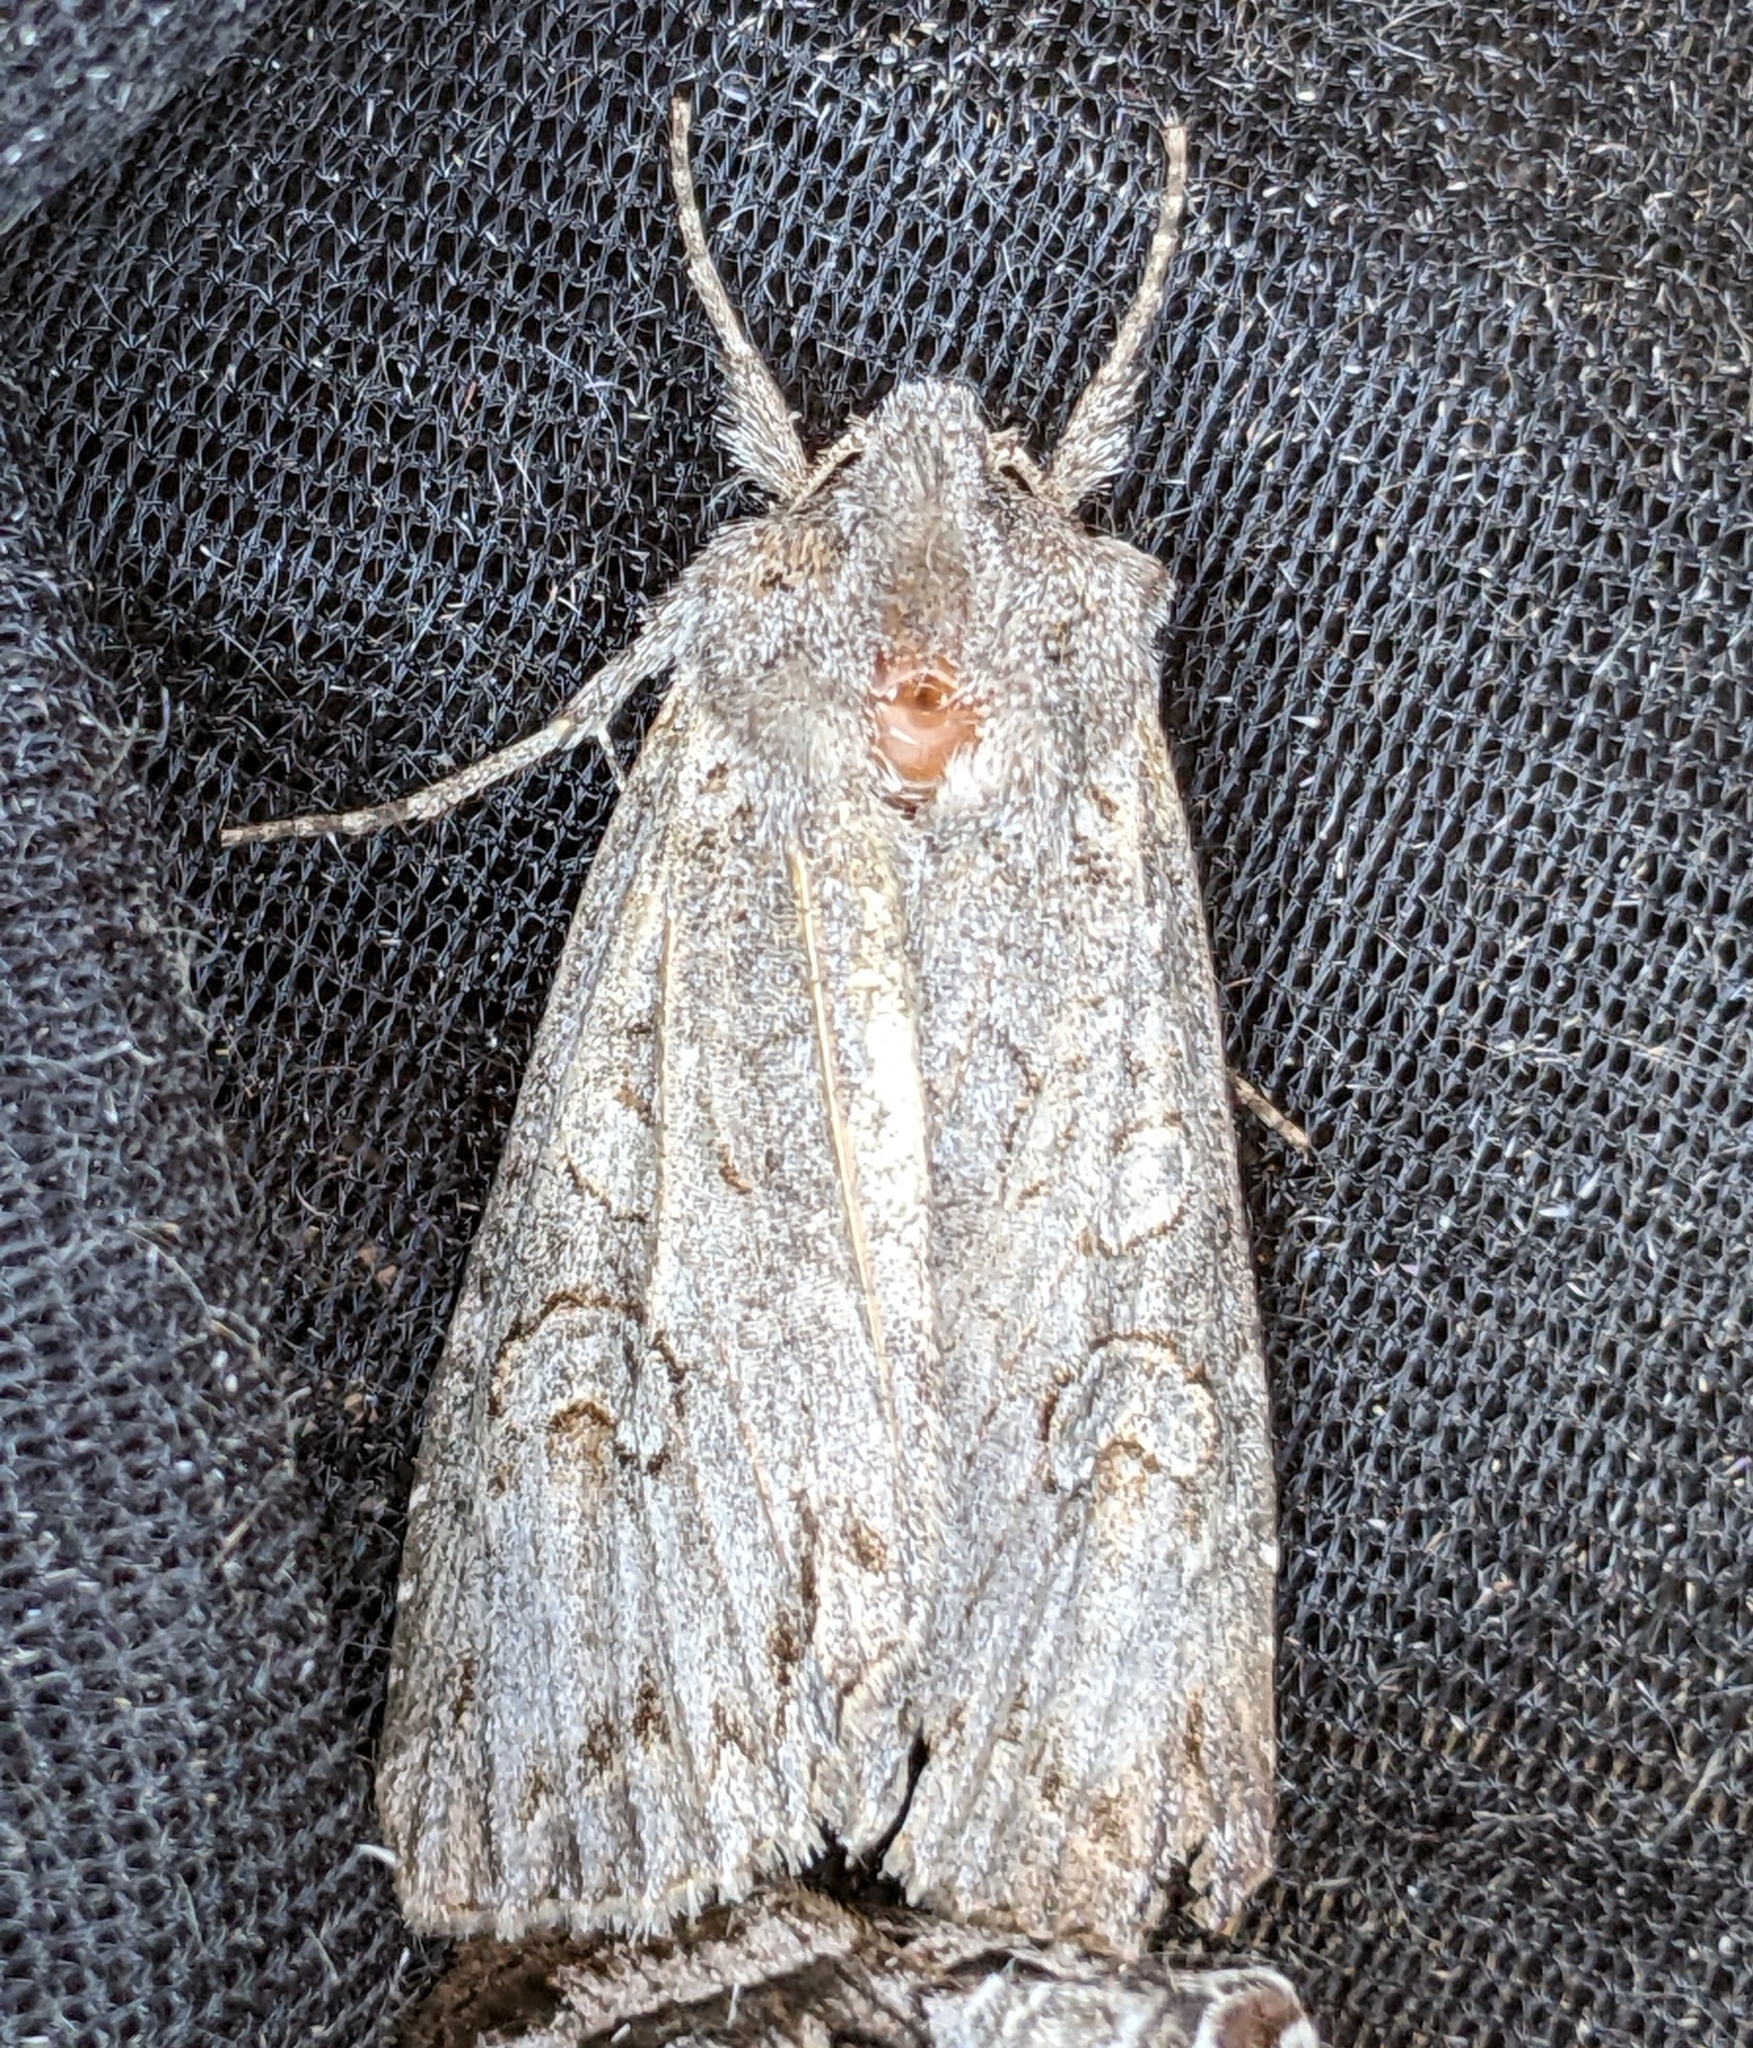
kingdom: Animalia
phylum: Arthropoda
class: Insecta
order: Lepidoptera
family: Noctuidae
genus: Polia
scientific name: Polia purpurissata
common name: Purple arches moth
